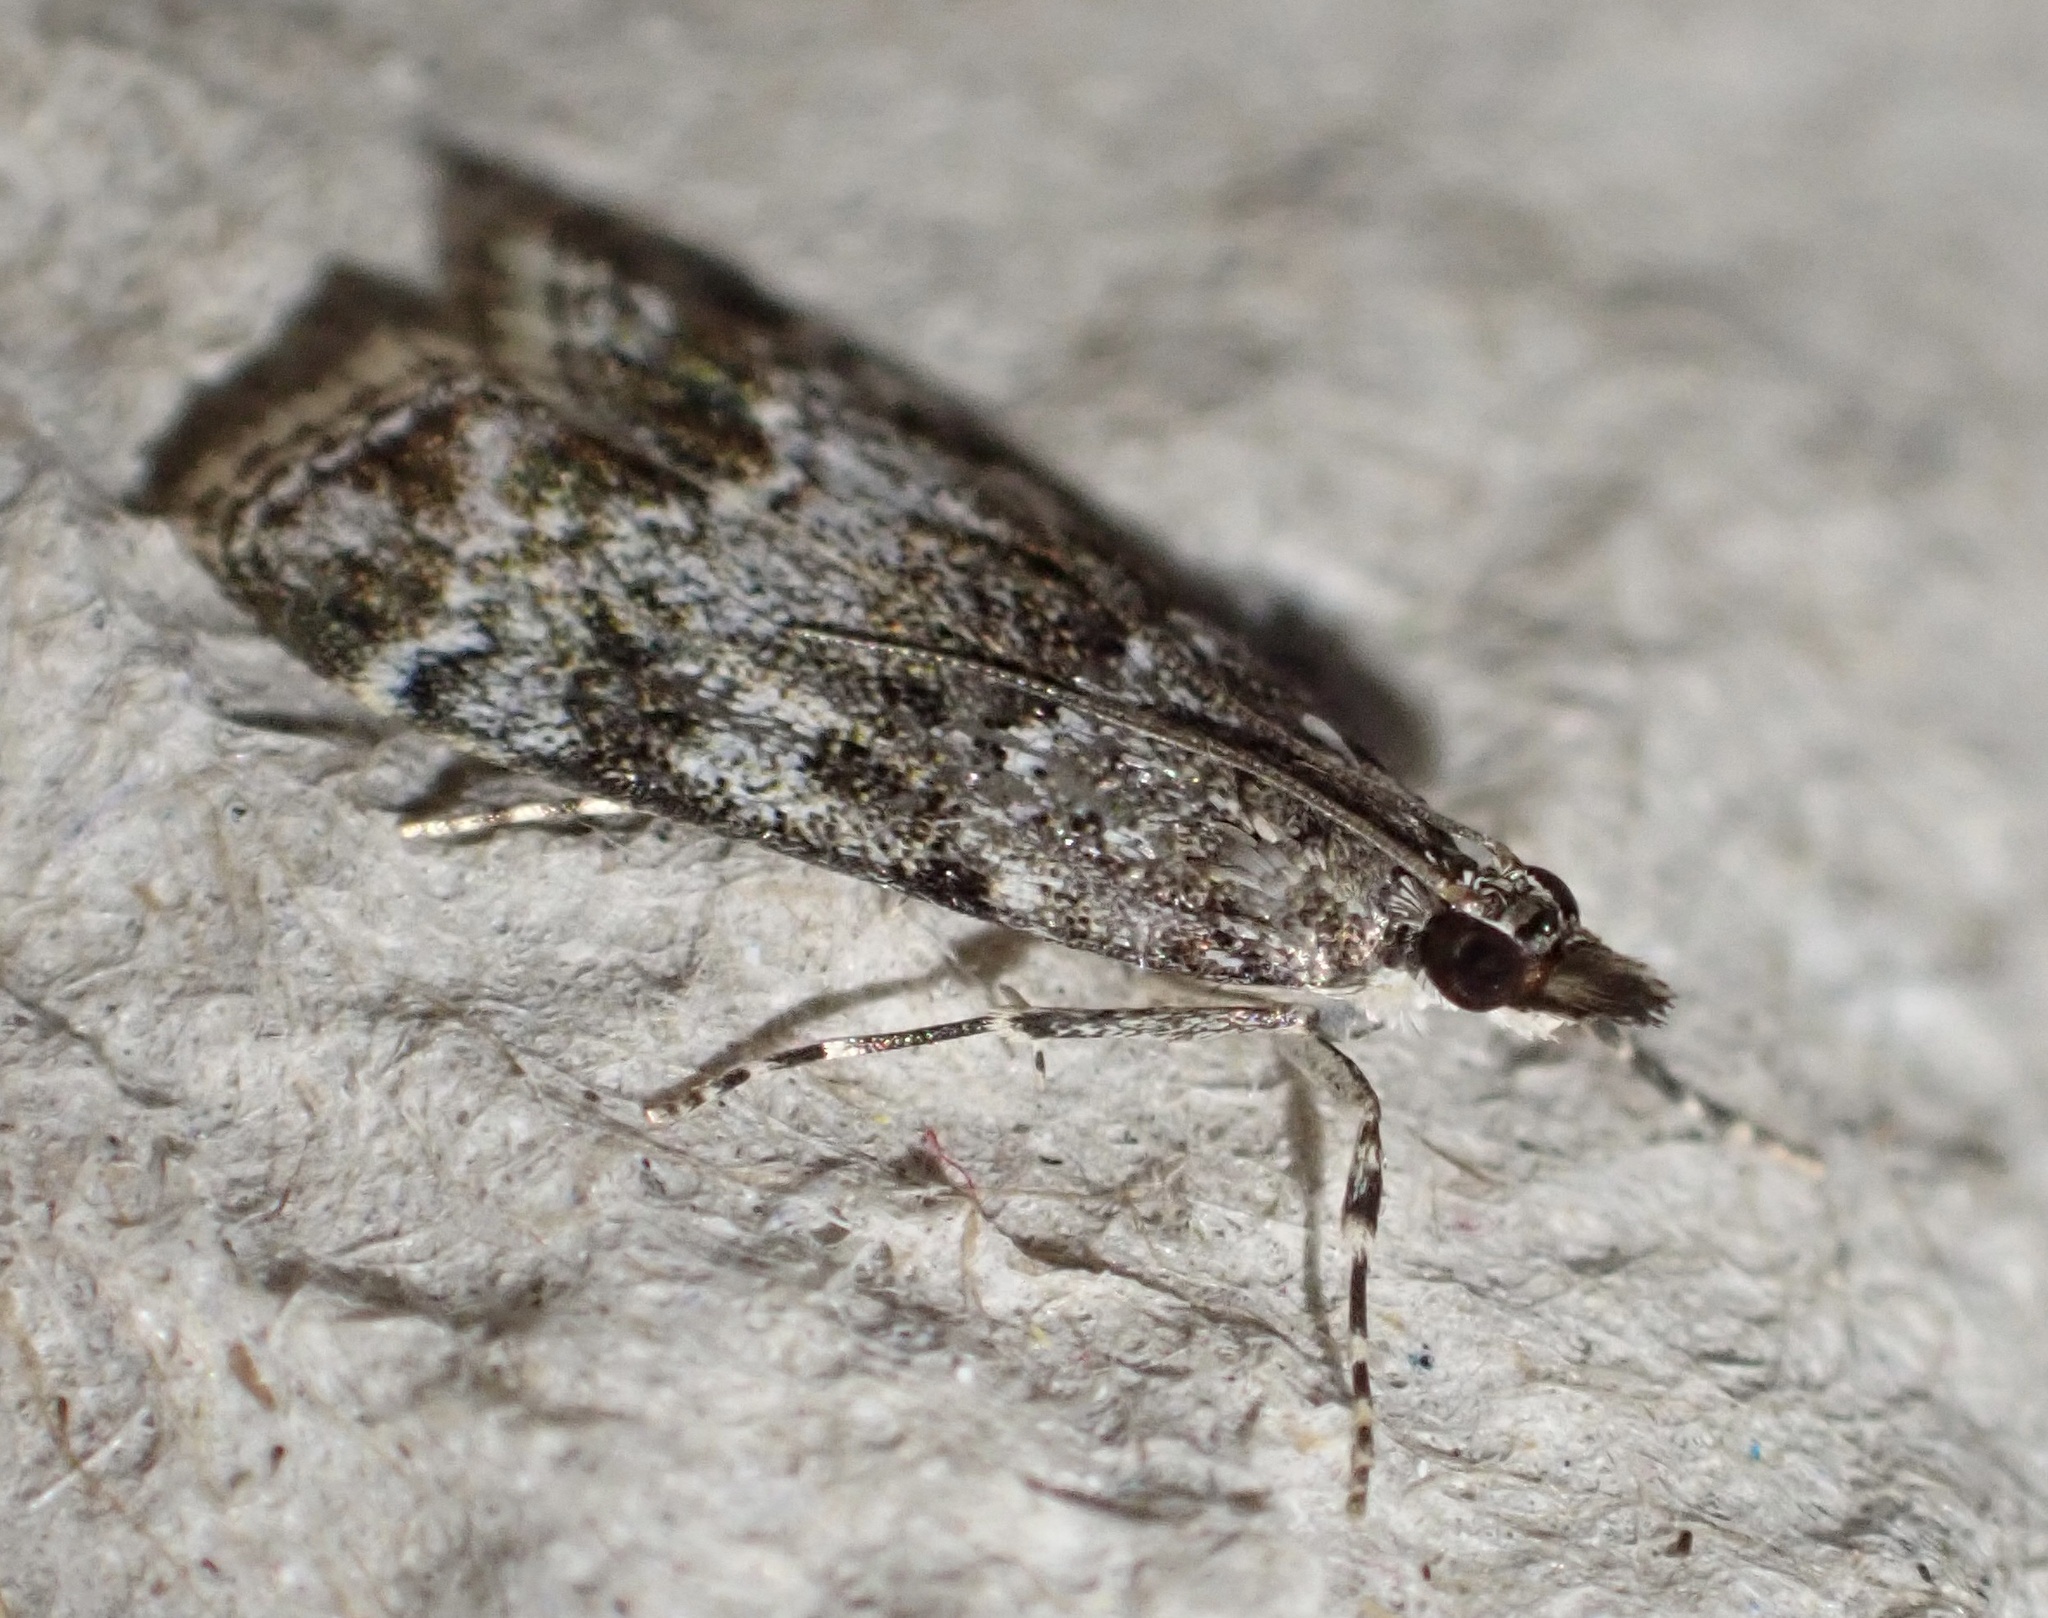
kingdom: Animalia
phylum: Arthropoda
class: Insecta
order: Lepidoptera
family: Crambidae
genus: Eudonia
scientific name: Eudonia mercurella
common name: Small grey
